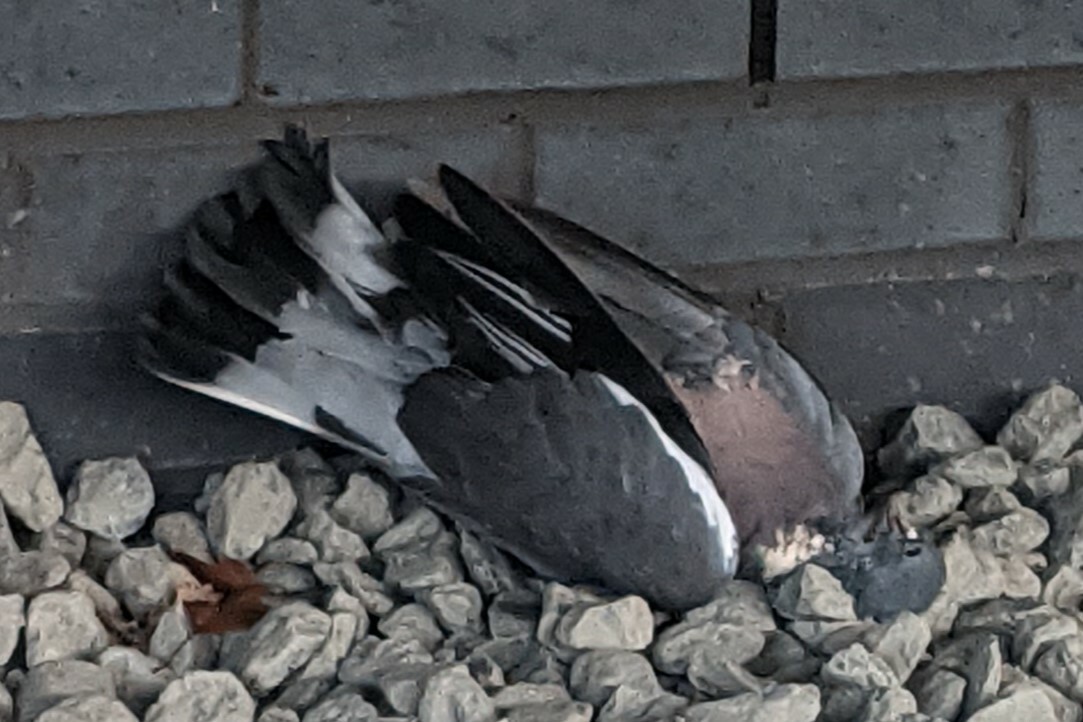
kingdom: Animalia
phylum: Chordata
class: Aves
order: Columbiformes
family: Columbidae
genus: Columba
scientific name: Columba palumbus
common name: Common wood pigeon
